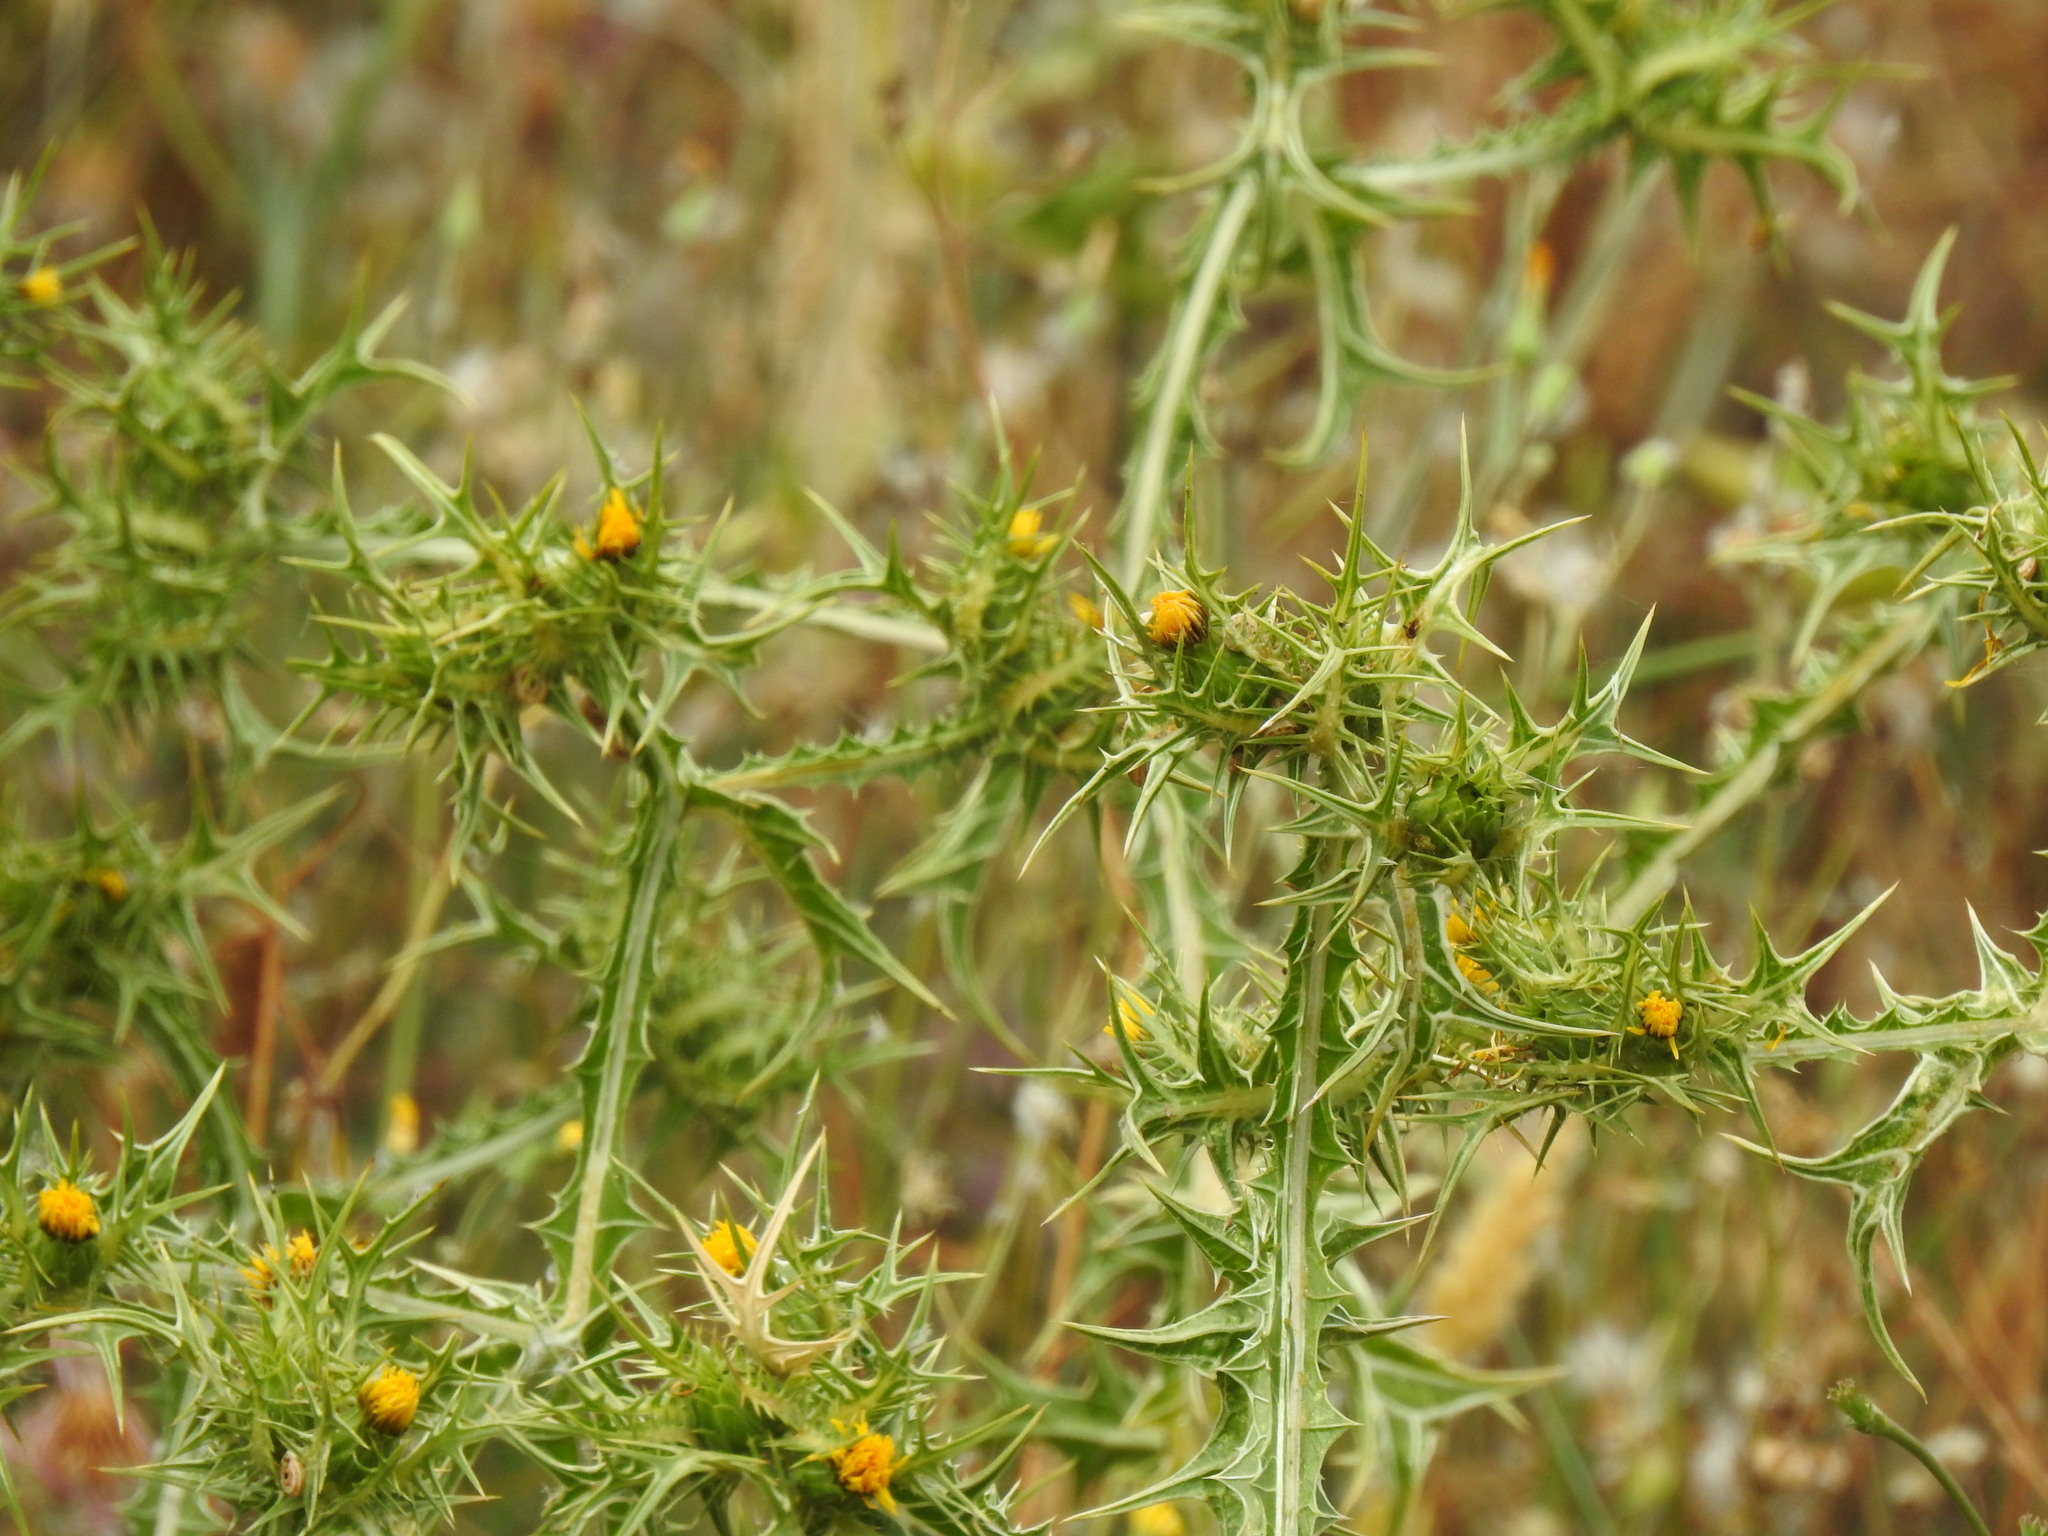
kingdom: Plantae
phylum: Tracheophyta
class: Magnoliopsida
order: Asterales
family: Asteraceae
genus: Scolymus
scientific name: Scolymus maculatus
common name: Spotted thistle
